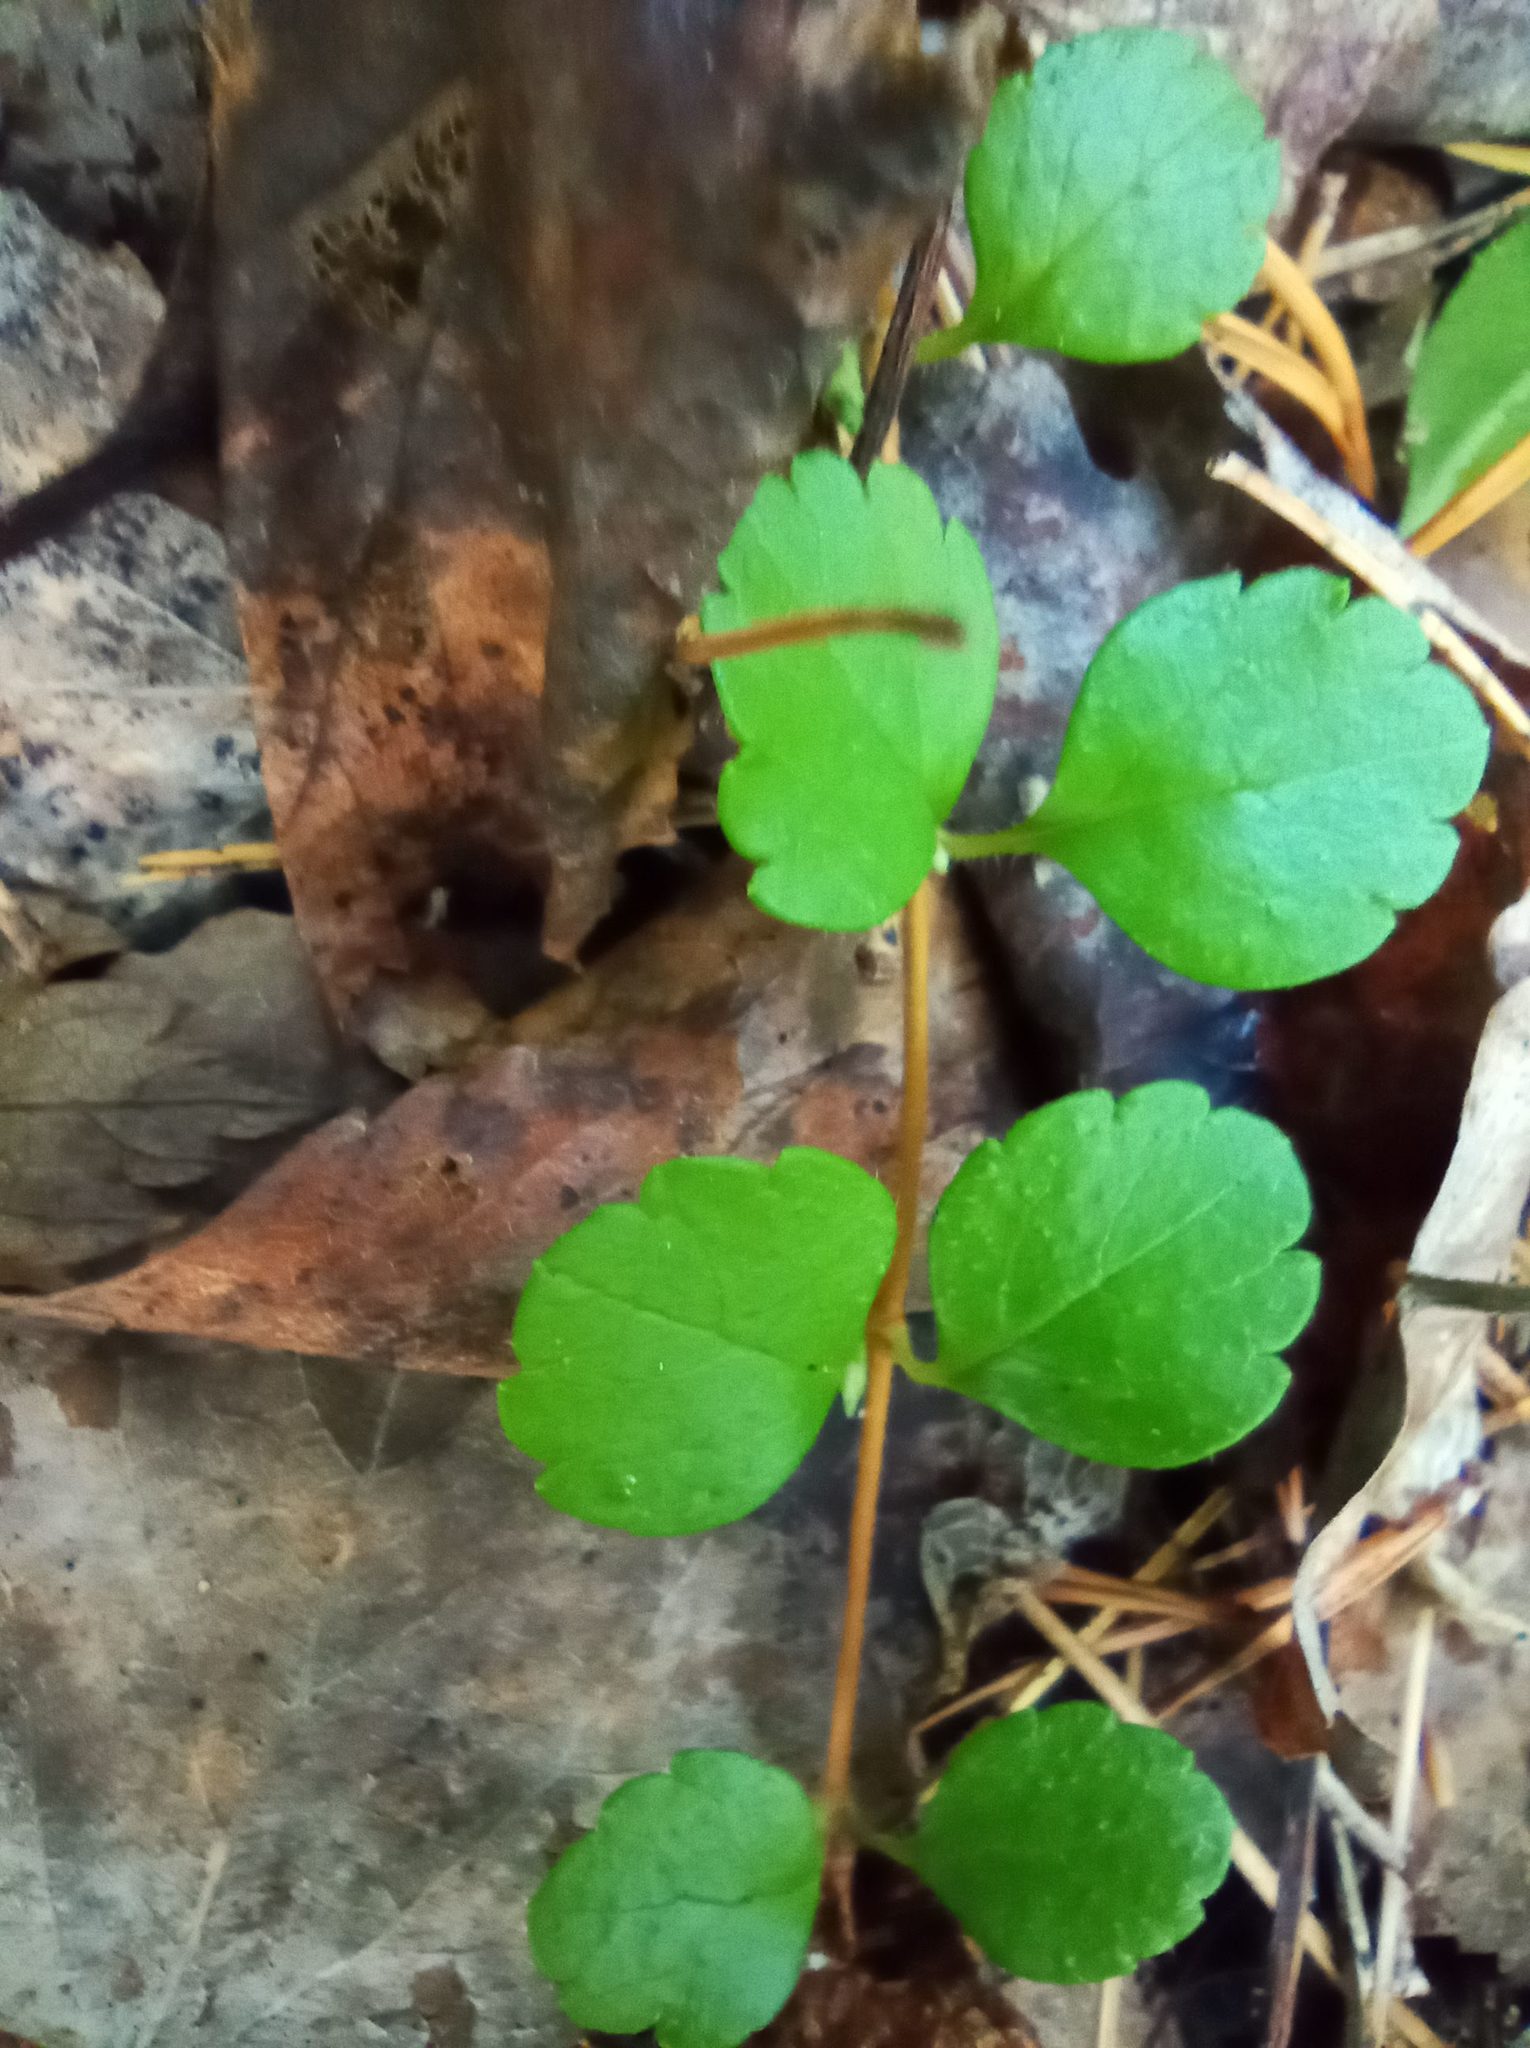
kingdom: Plantae
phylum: Tracheophyta
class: Magnoliopsida
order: Dipsacales
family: Caprifoliaceae
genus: Linnaea
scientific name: Linnaea borealis
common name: Twinflower
